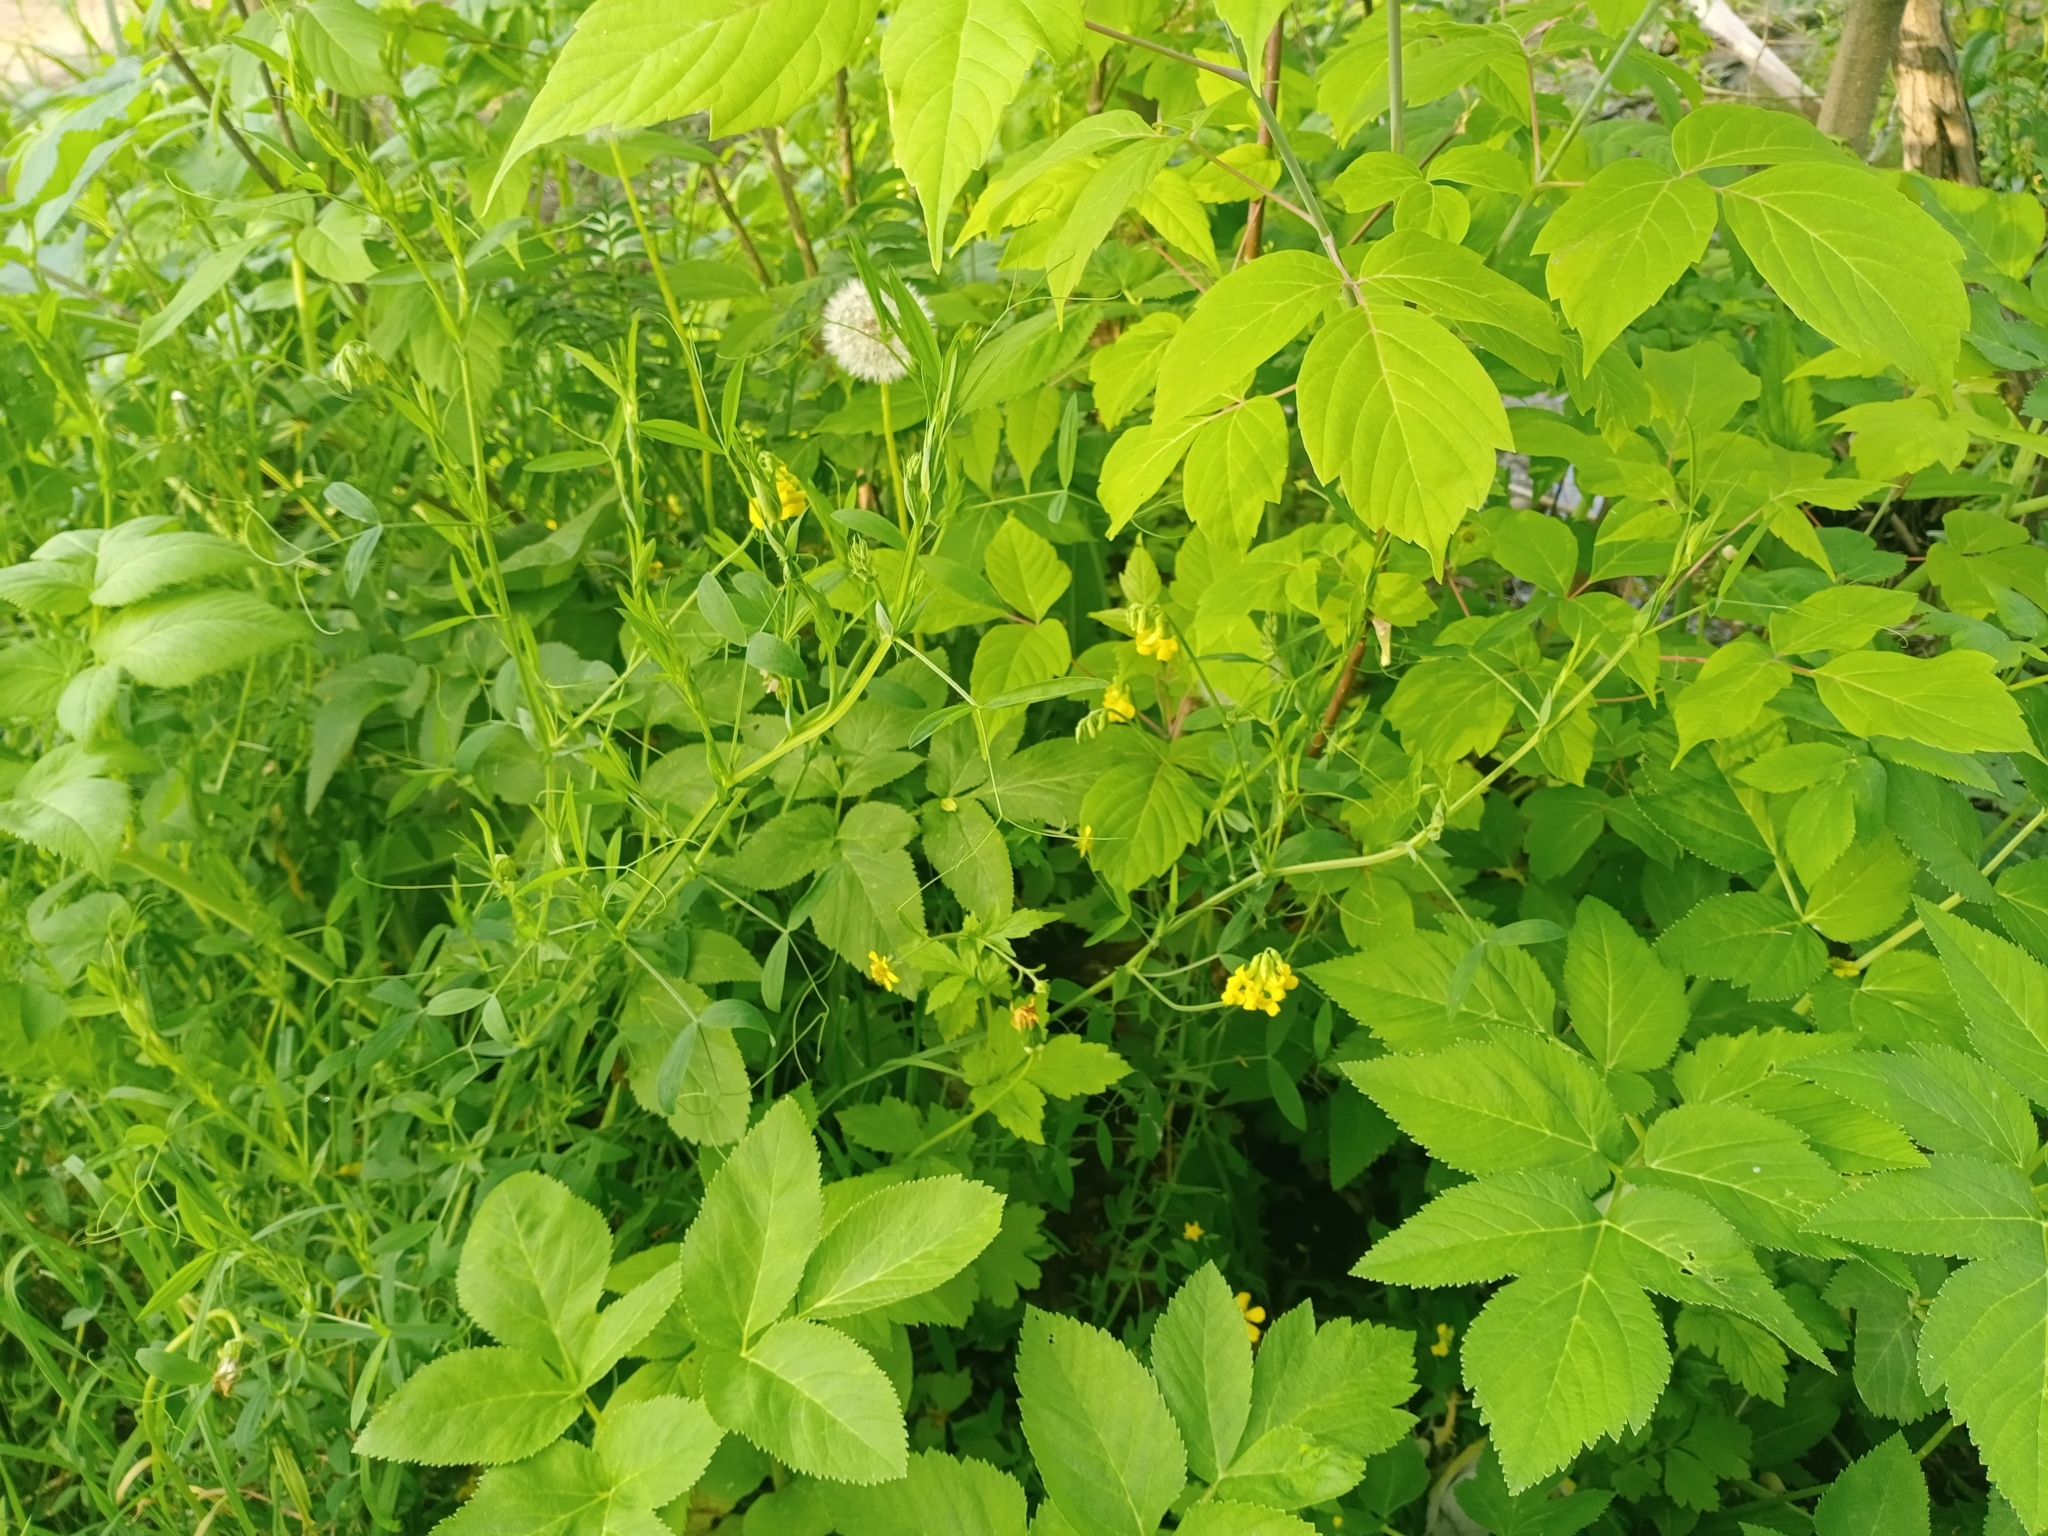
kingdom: Plantae
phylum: Tracheophyta
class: Magnoliopsida
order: Fabales
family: Fabaceae
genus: Lathyrus
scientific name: Lathyrus pratensis
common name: Meadow vetchling
